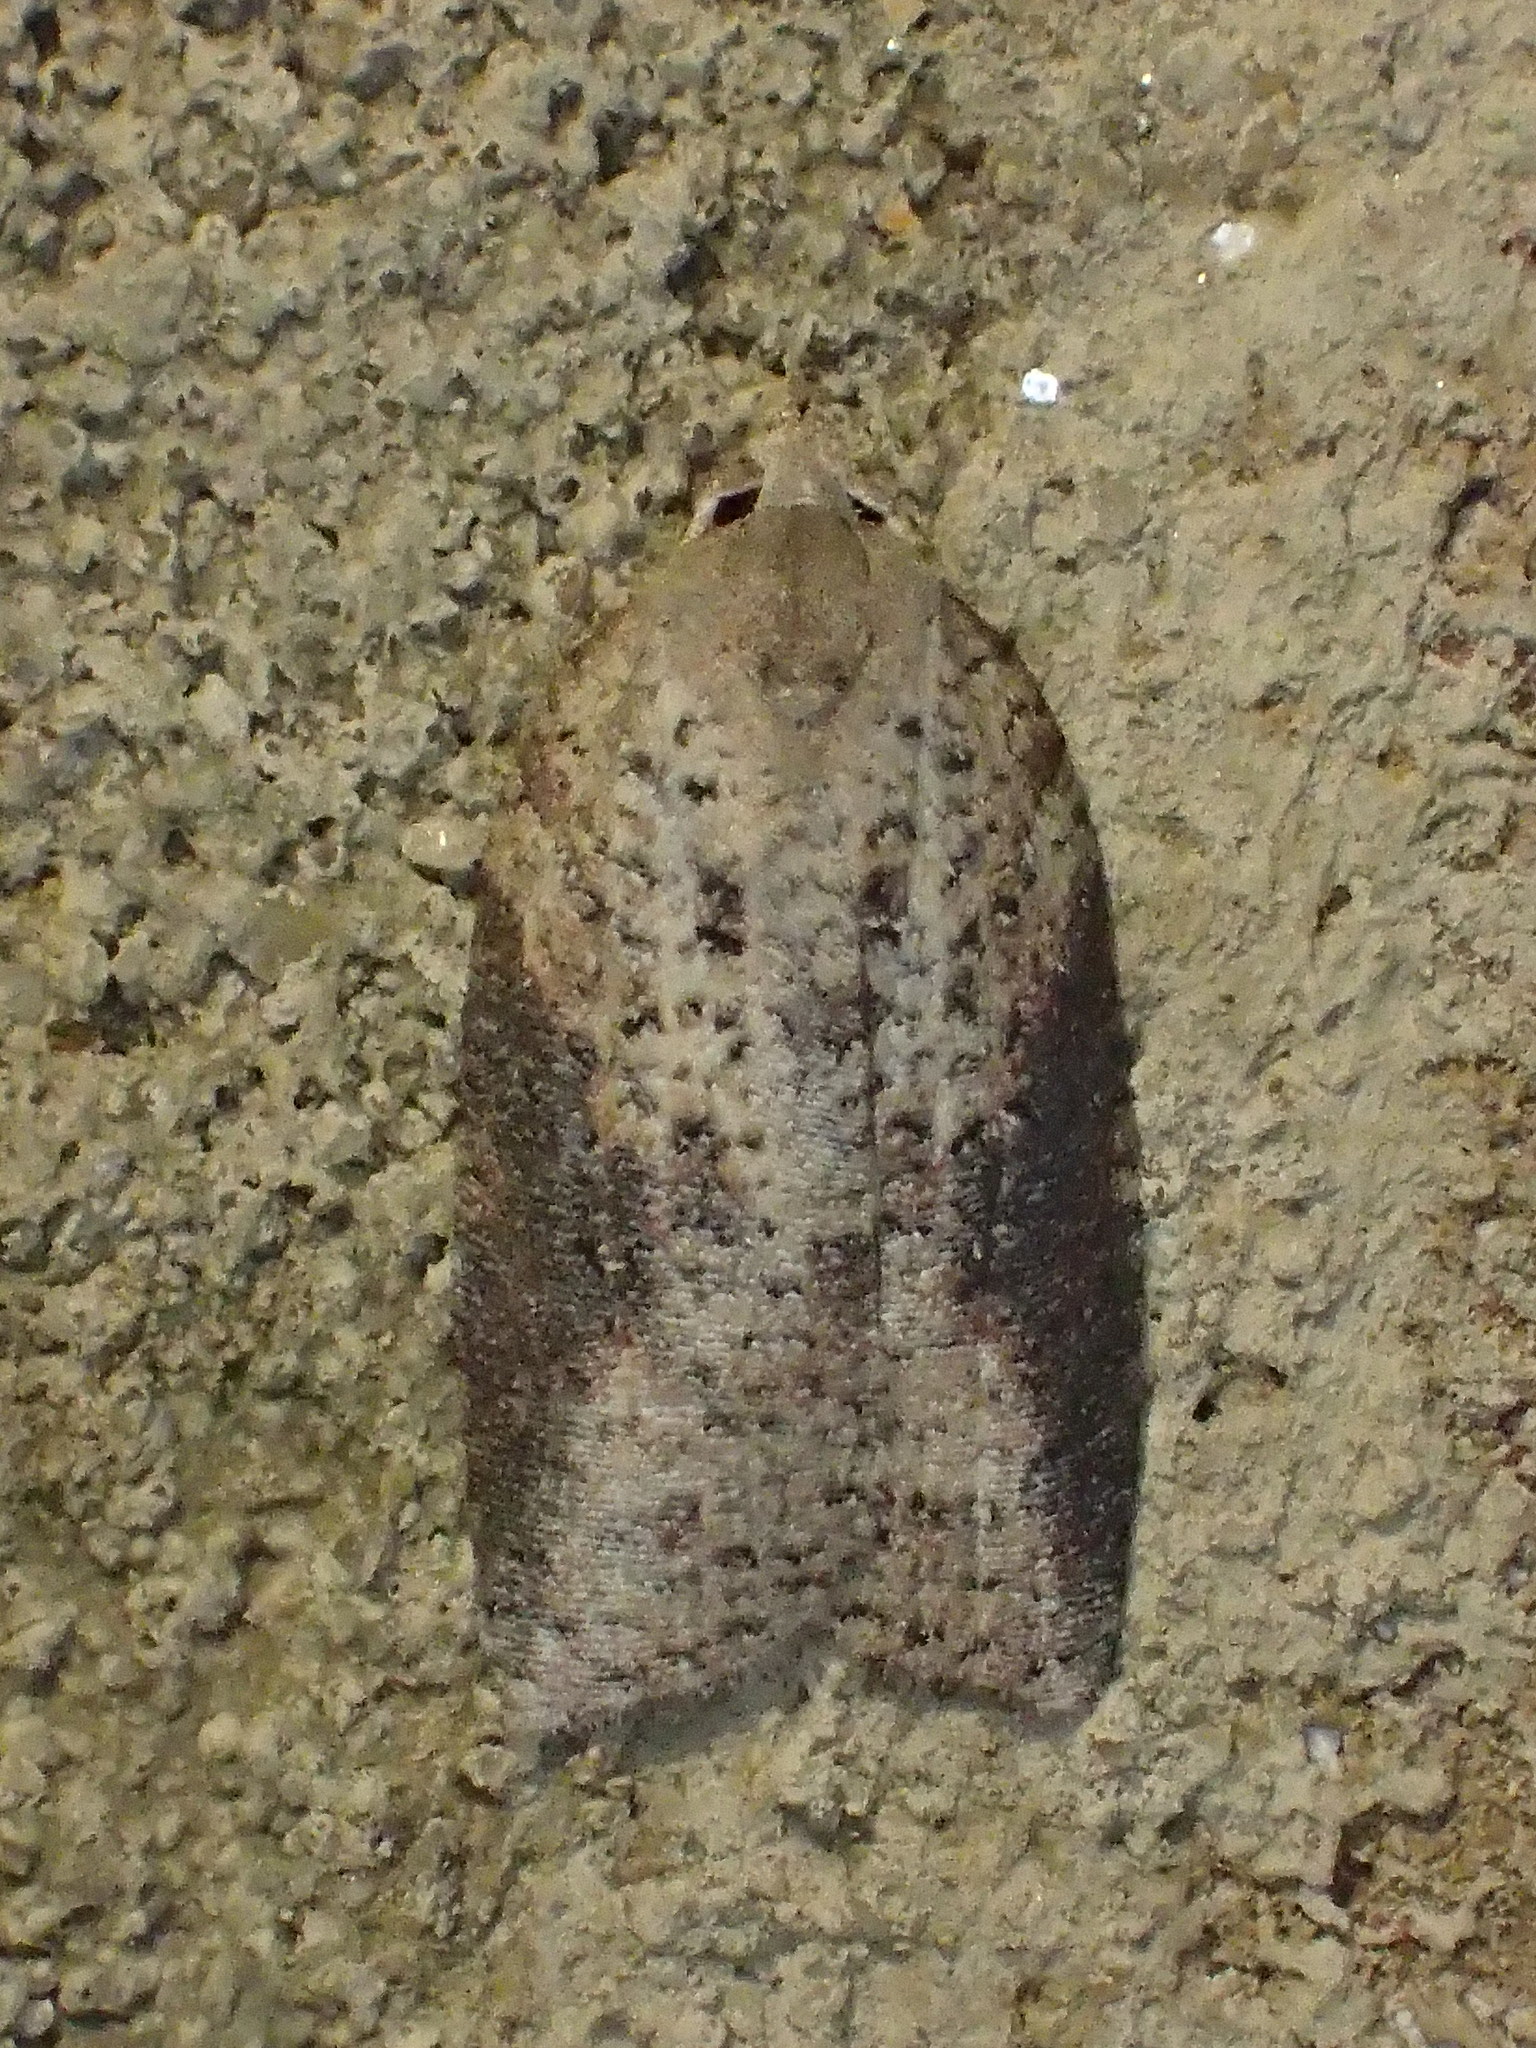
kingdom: Animalia
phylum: Arthropoda
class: Insecta
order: Lepidoptera
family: Tortricidae
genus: Amorbia
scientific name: Amorbia humerosana
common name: White-lined leafroller moth
